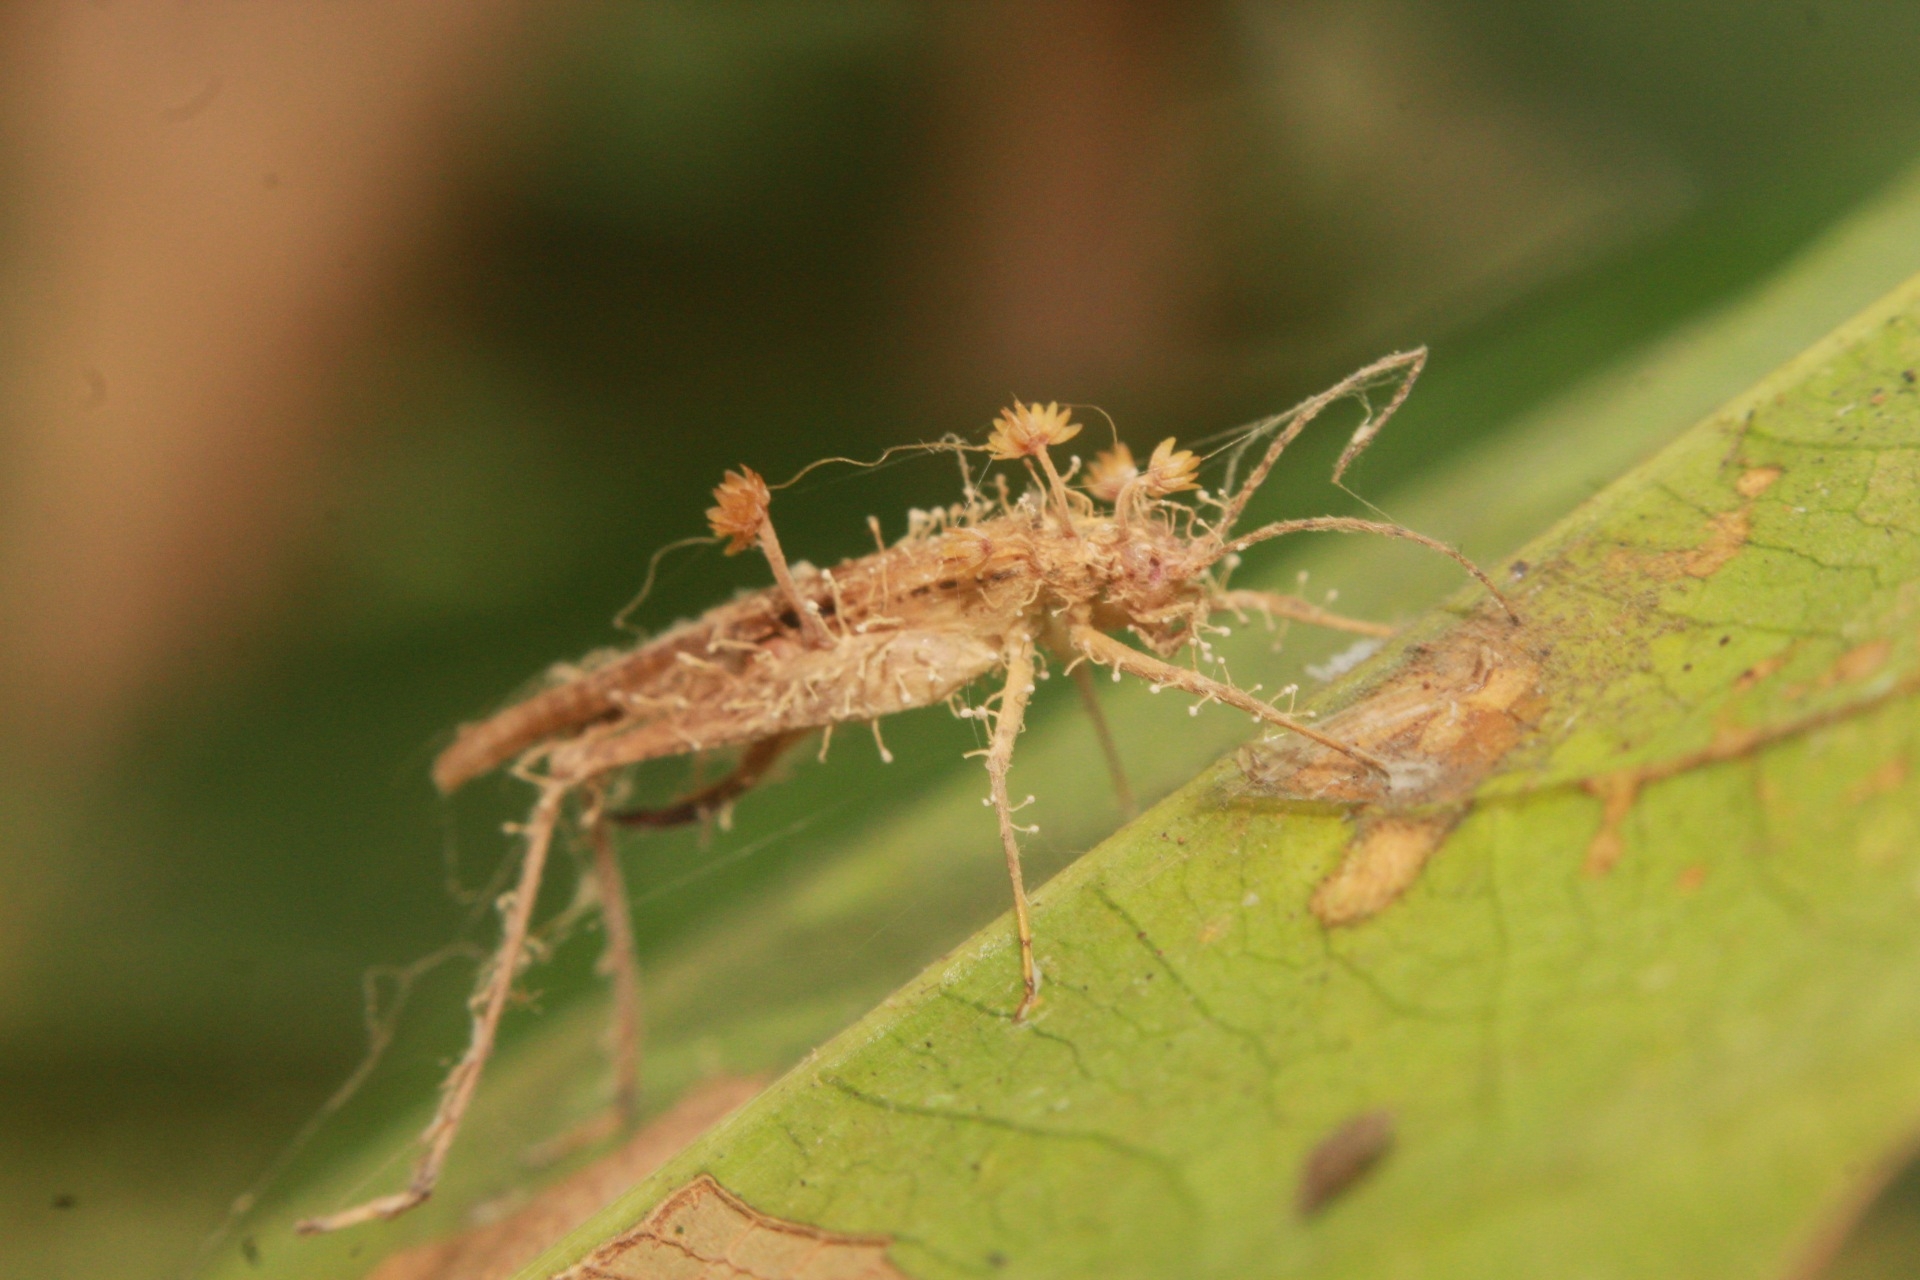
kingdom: Fungi
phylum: Ascomycota
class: Sordariomycetes
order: Hypocreales
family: Cordycipitaceae
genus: Akanthomyces
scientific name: Akanthomyces fragilis
